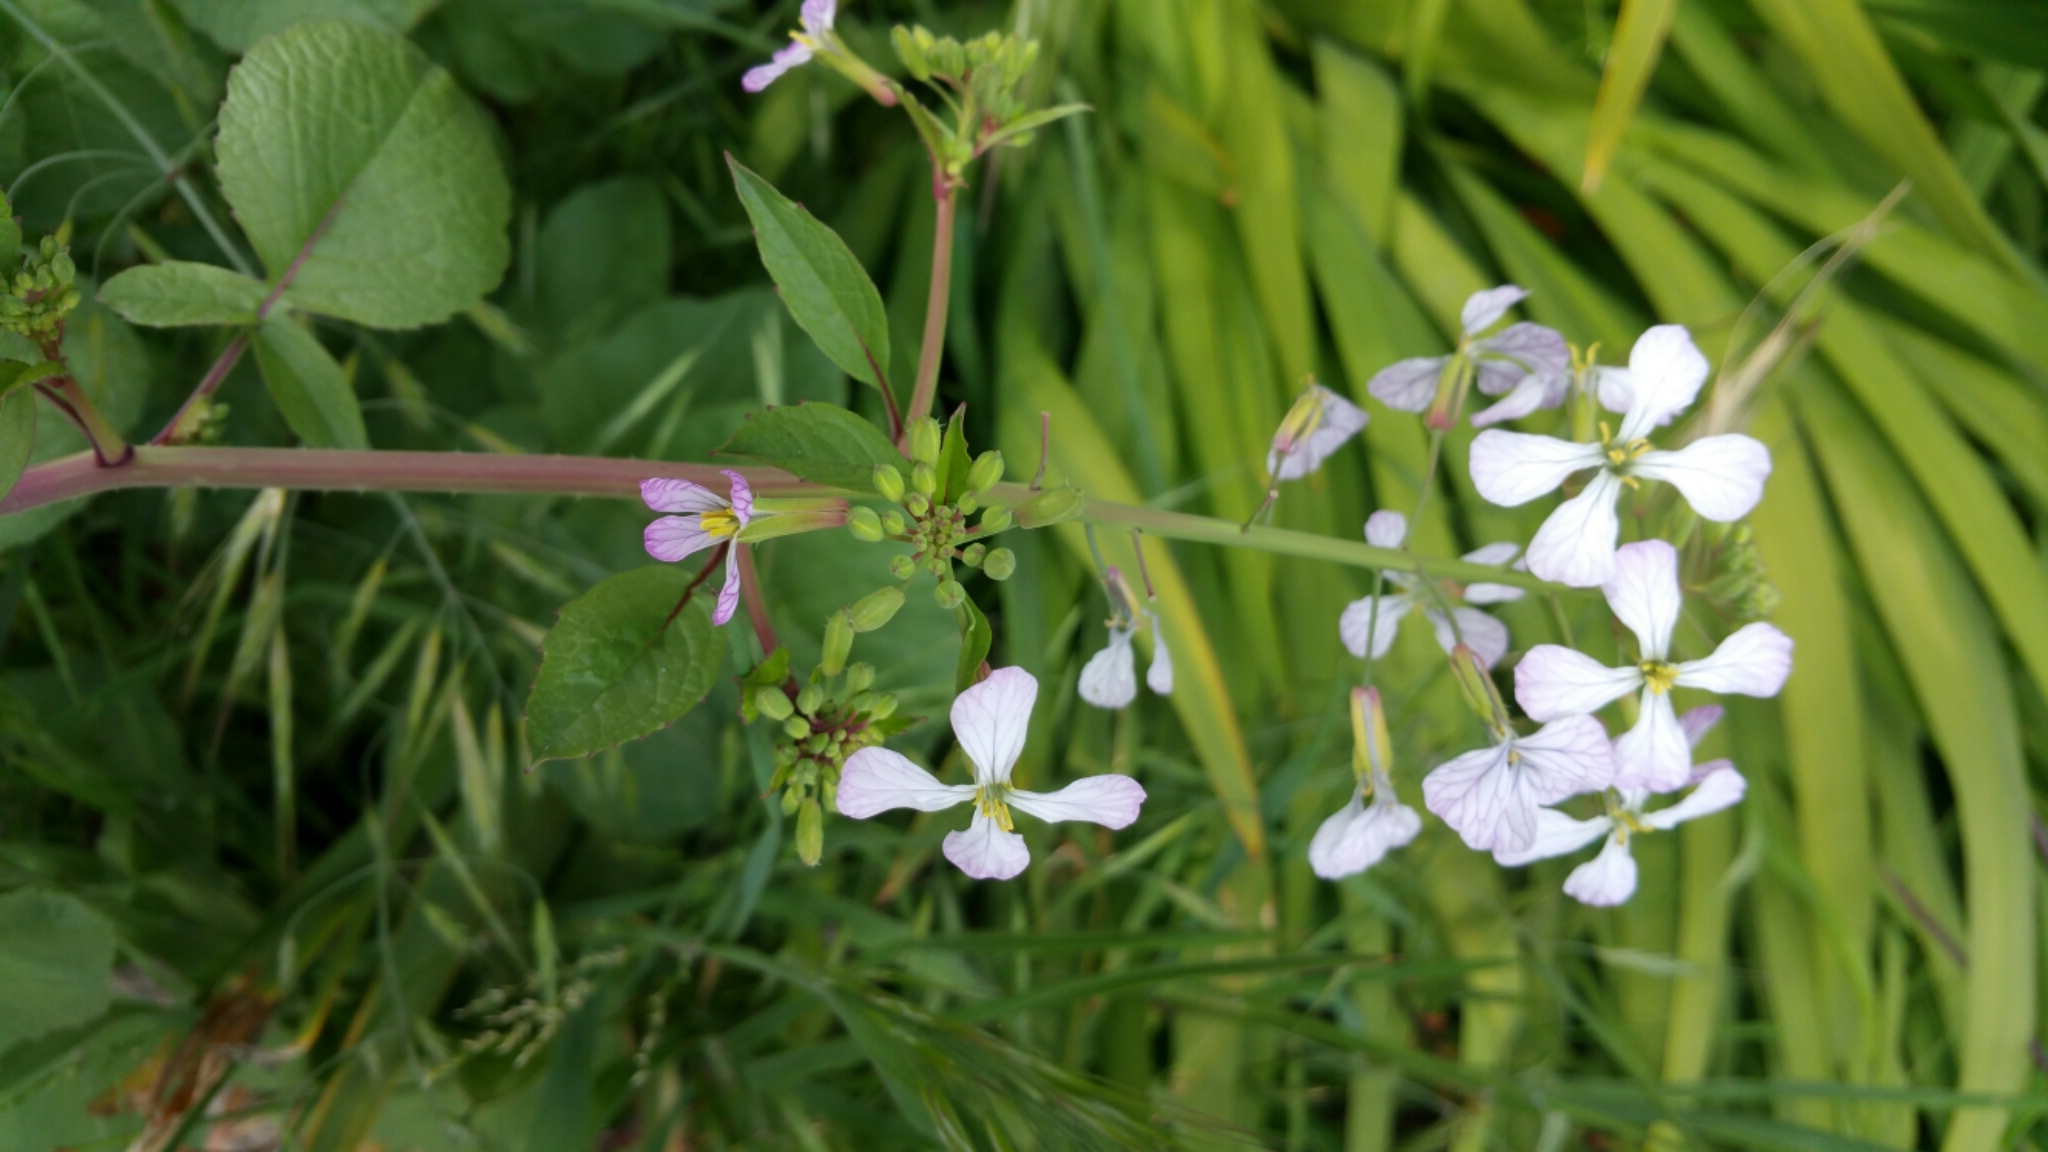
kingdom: Plantae
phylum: Tracheophyta
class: Magnoliopsida
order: Brassicales
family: Brassicaceae
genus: Raphanus
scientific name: Raphanus sativus
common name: Cultivated radish
